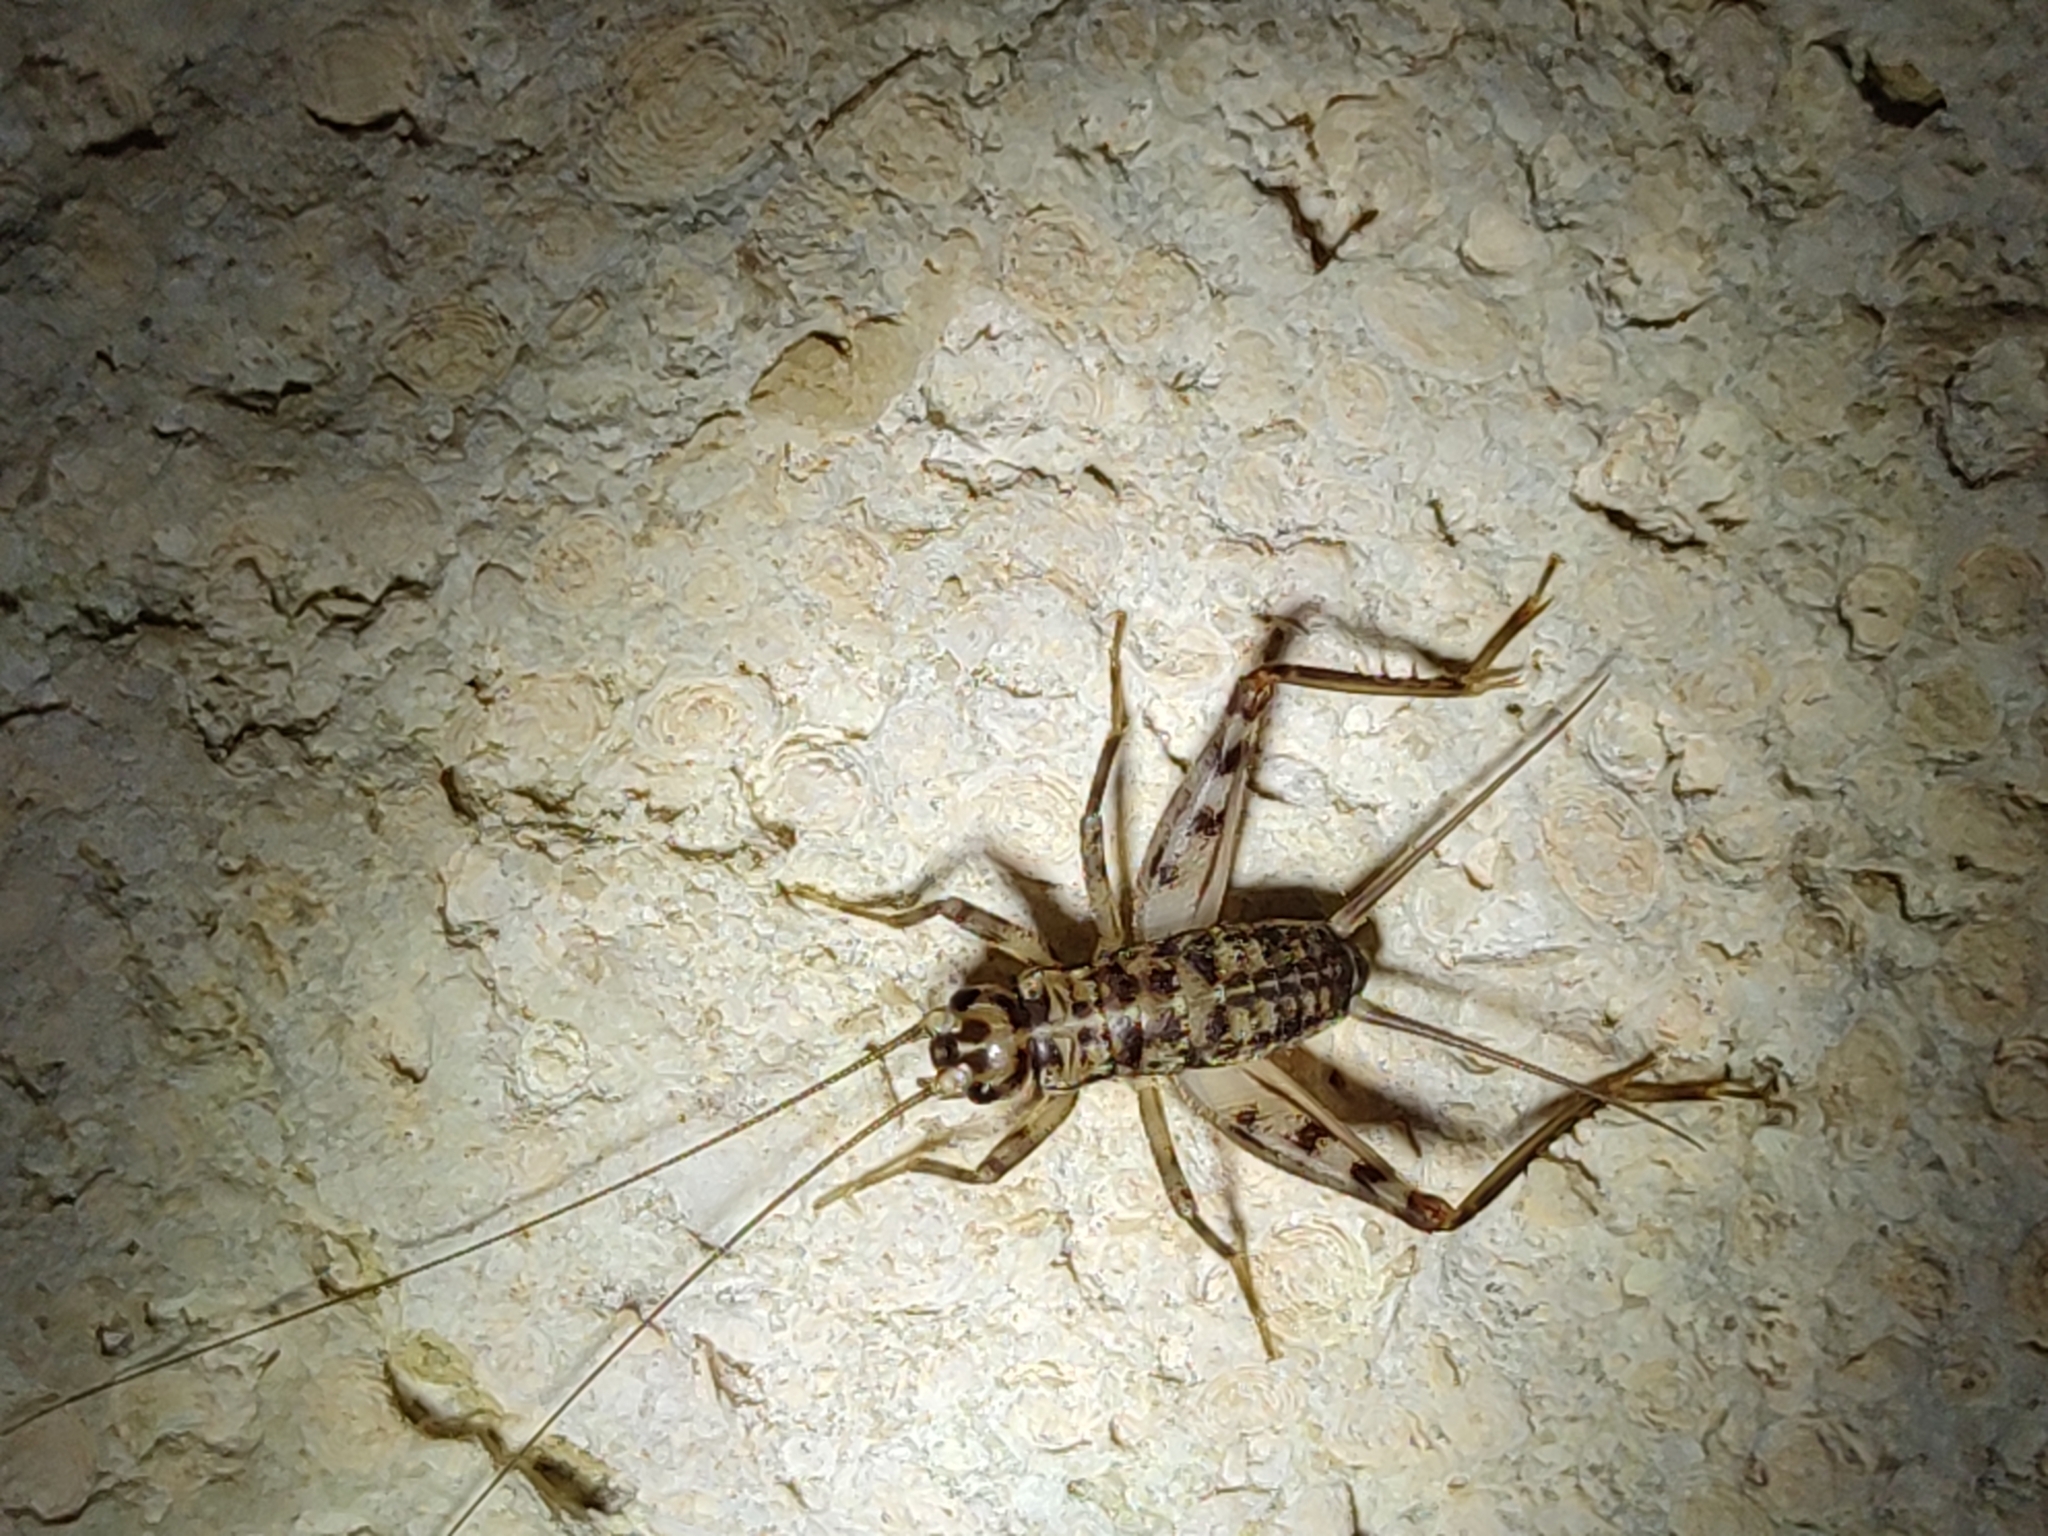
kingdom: Animalia
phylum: Arthropoda
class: Insecta
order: Orthoptera
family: Gryllidae
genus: Gryllomorpha
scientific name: Gryllomorpha dalmatina
